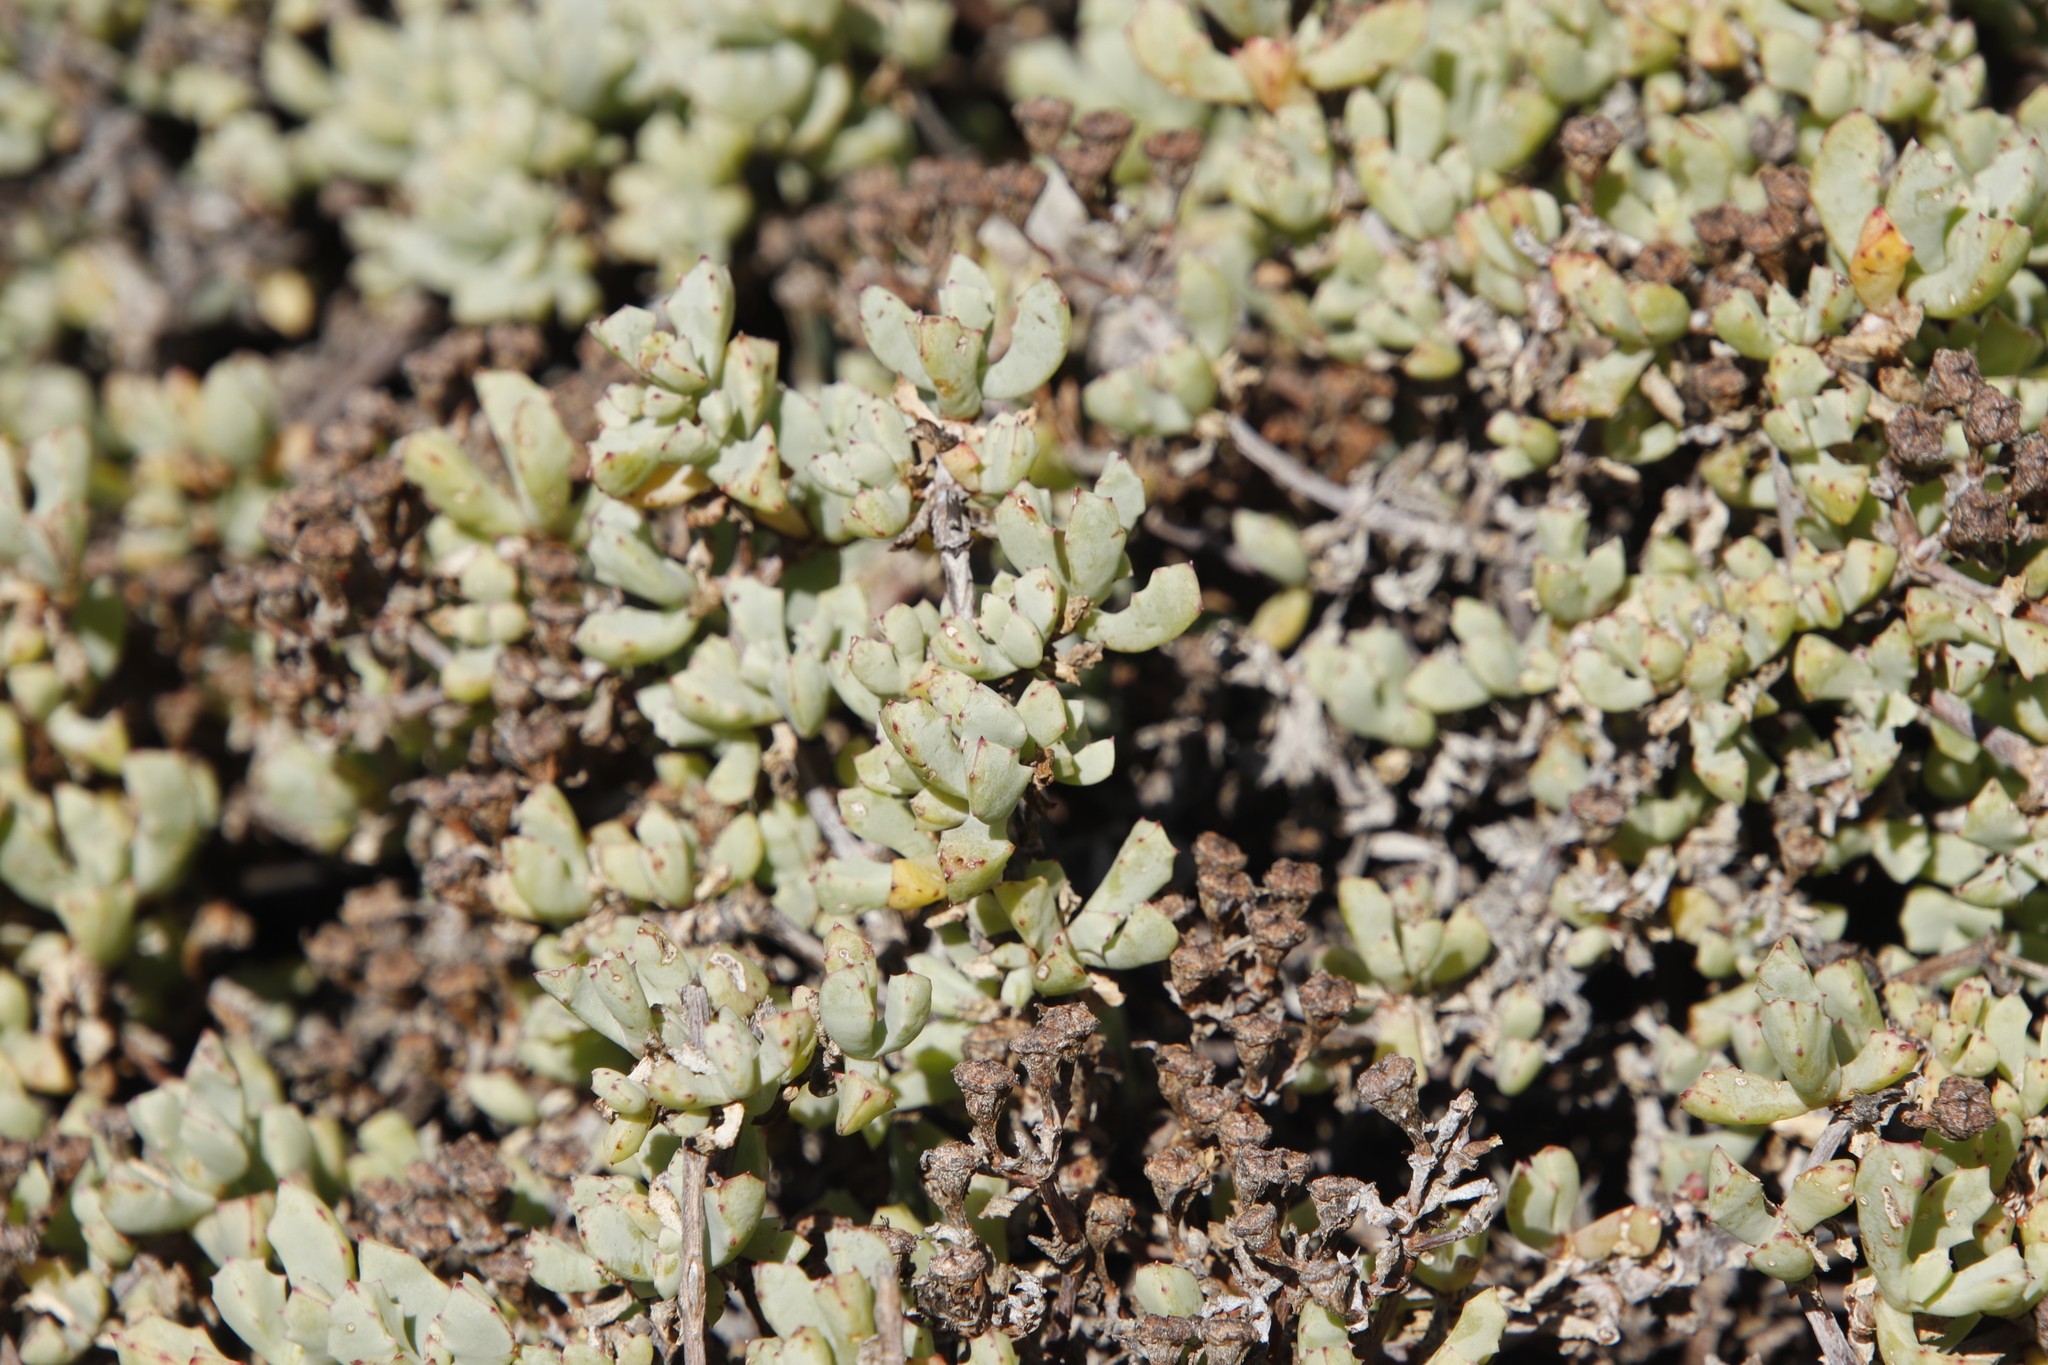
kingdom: Plantae
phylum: Tracheophyta
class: Magnoliopsida
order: Caryophyllales
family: Aizoaceae
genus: Oscularia
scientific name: Oscularia deltoides
